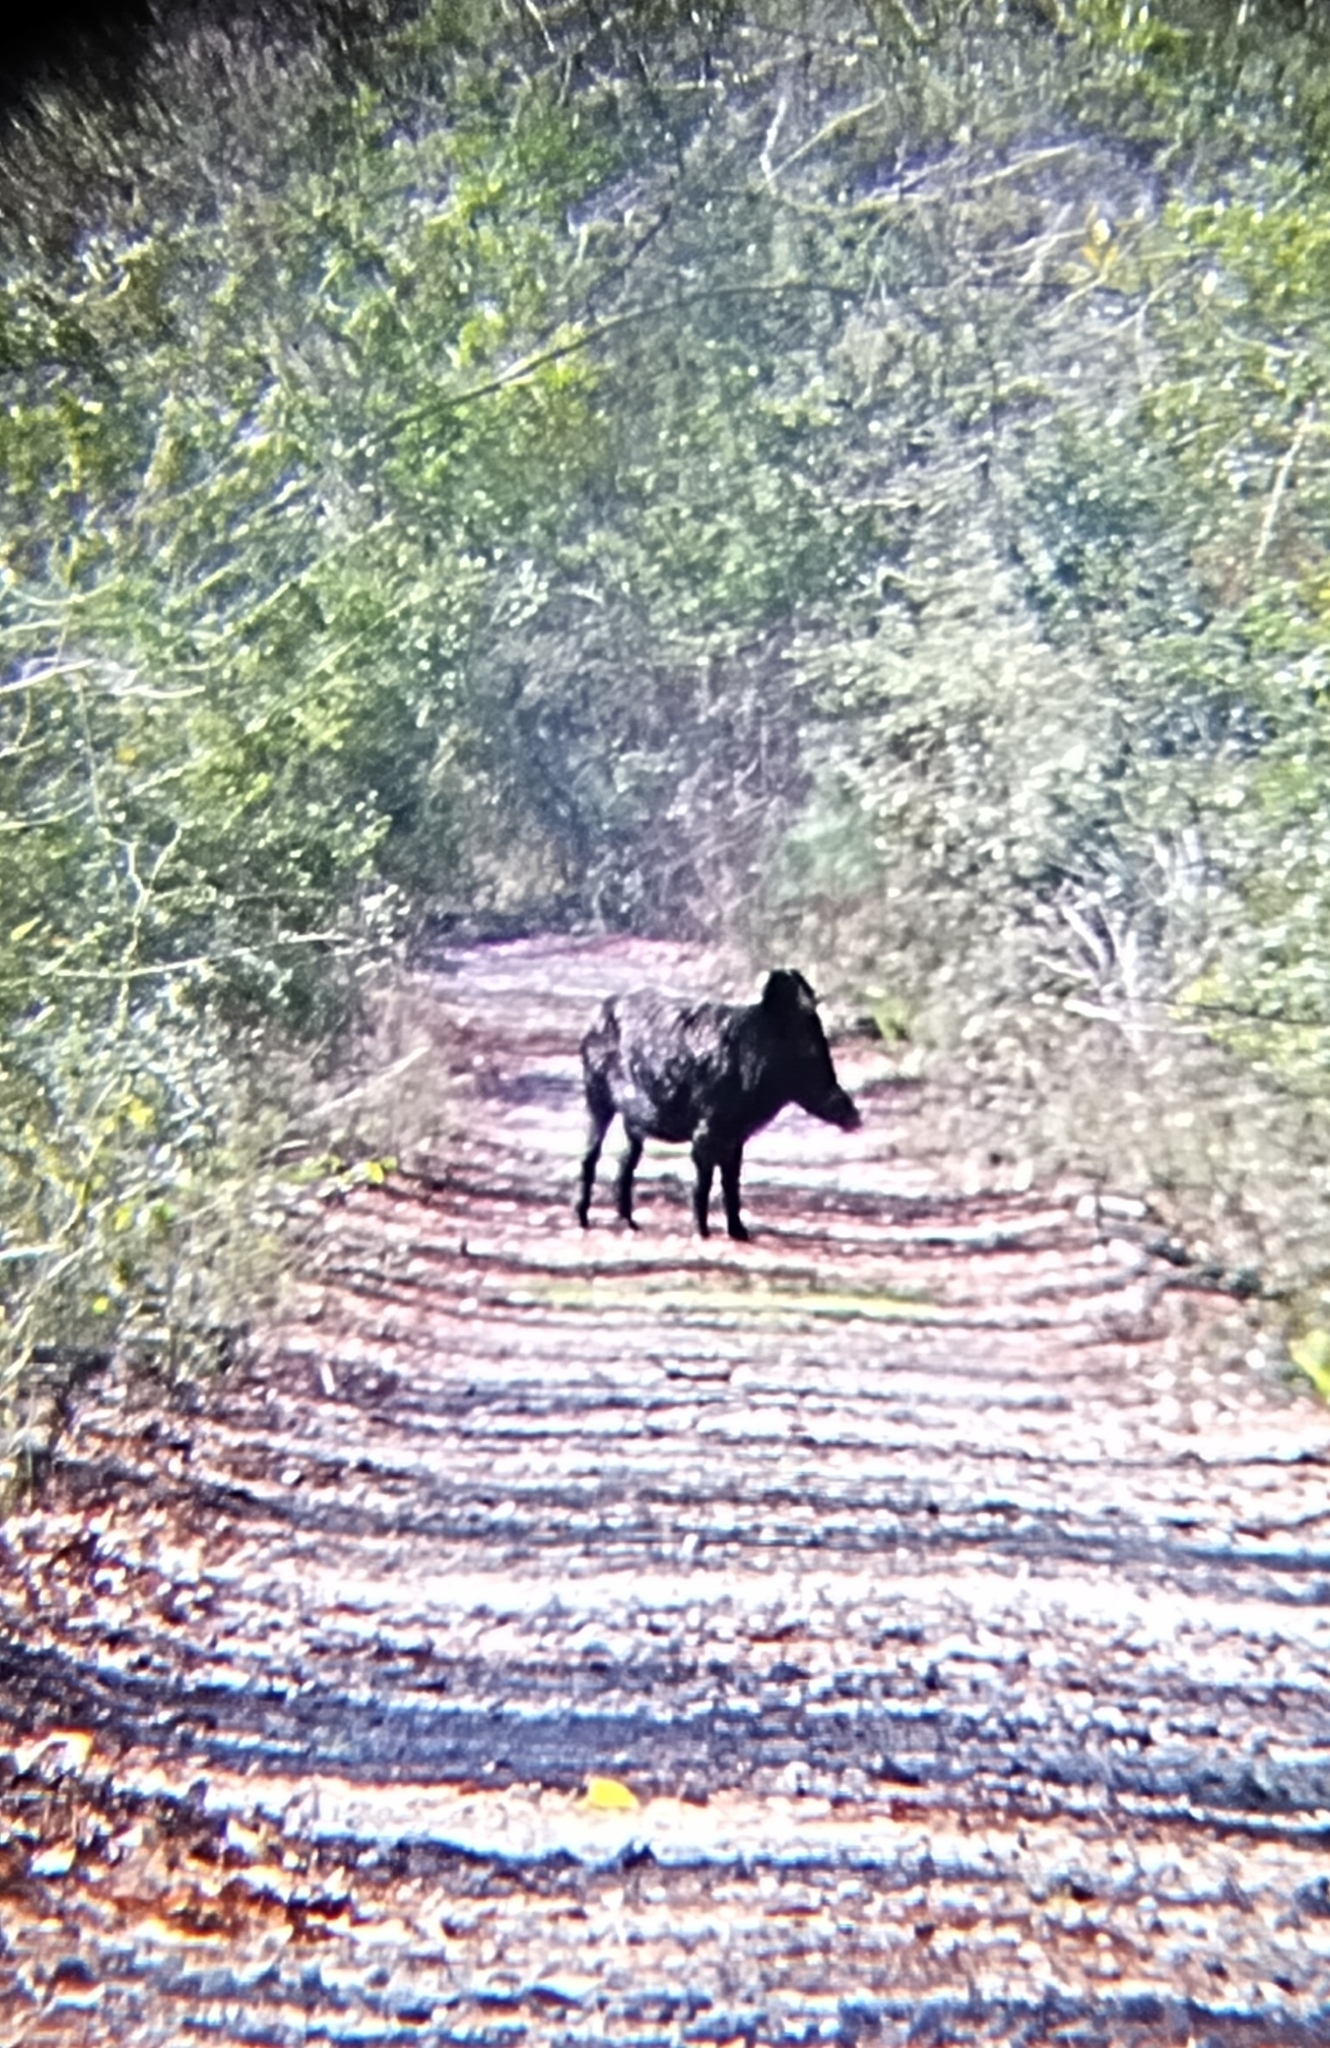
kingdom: Animalia
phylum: Chordata
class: Mammalia
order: Artiodactyla
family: Suidae
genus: Sus
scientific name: Sus scrofa
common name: Wild boar
